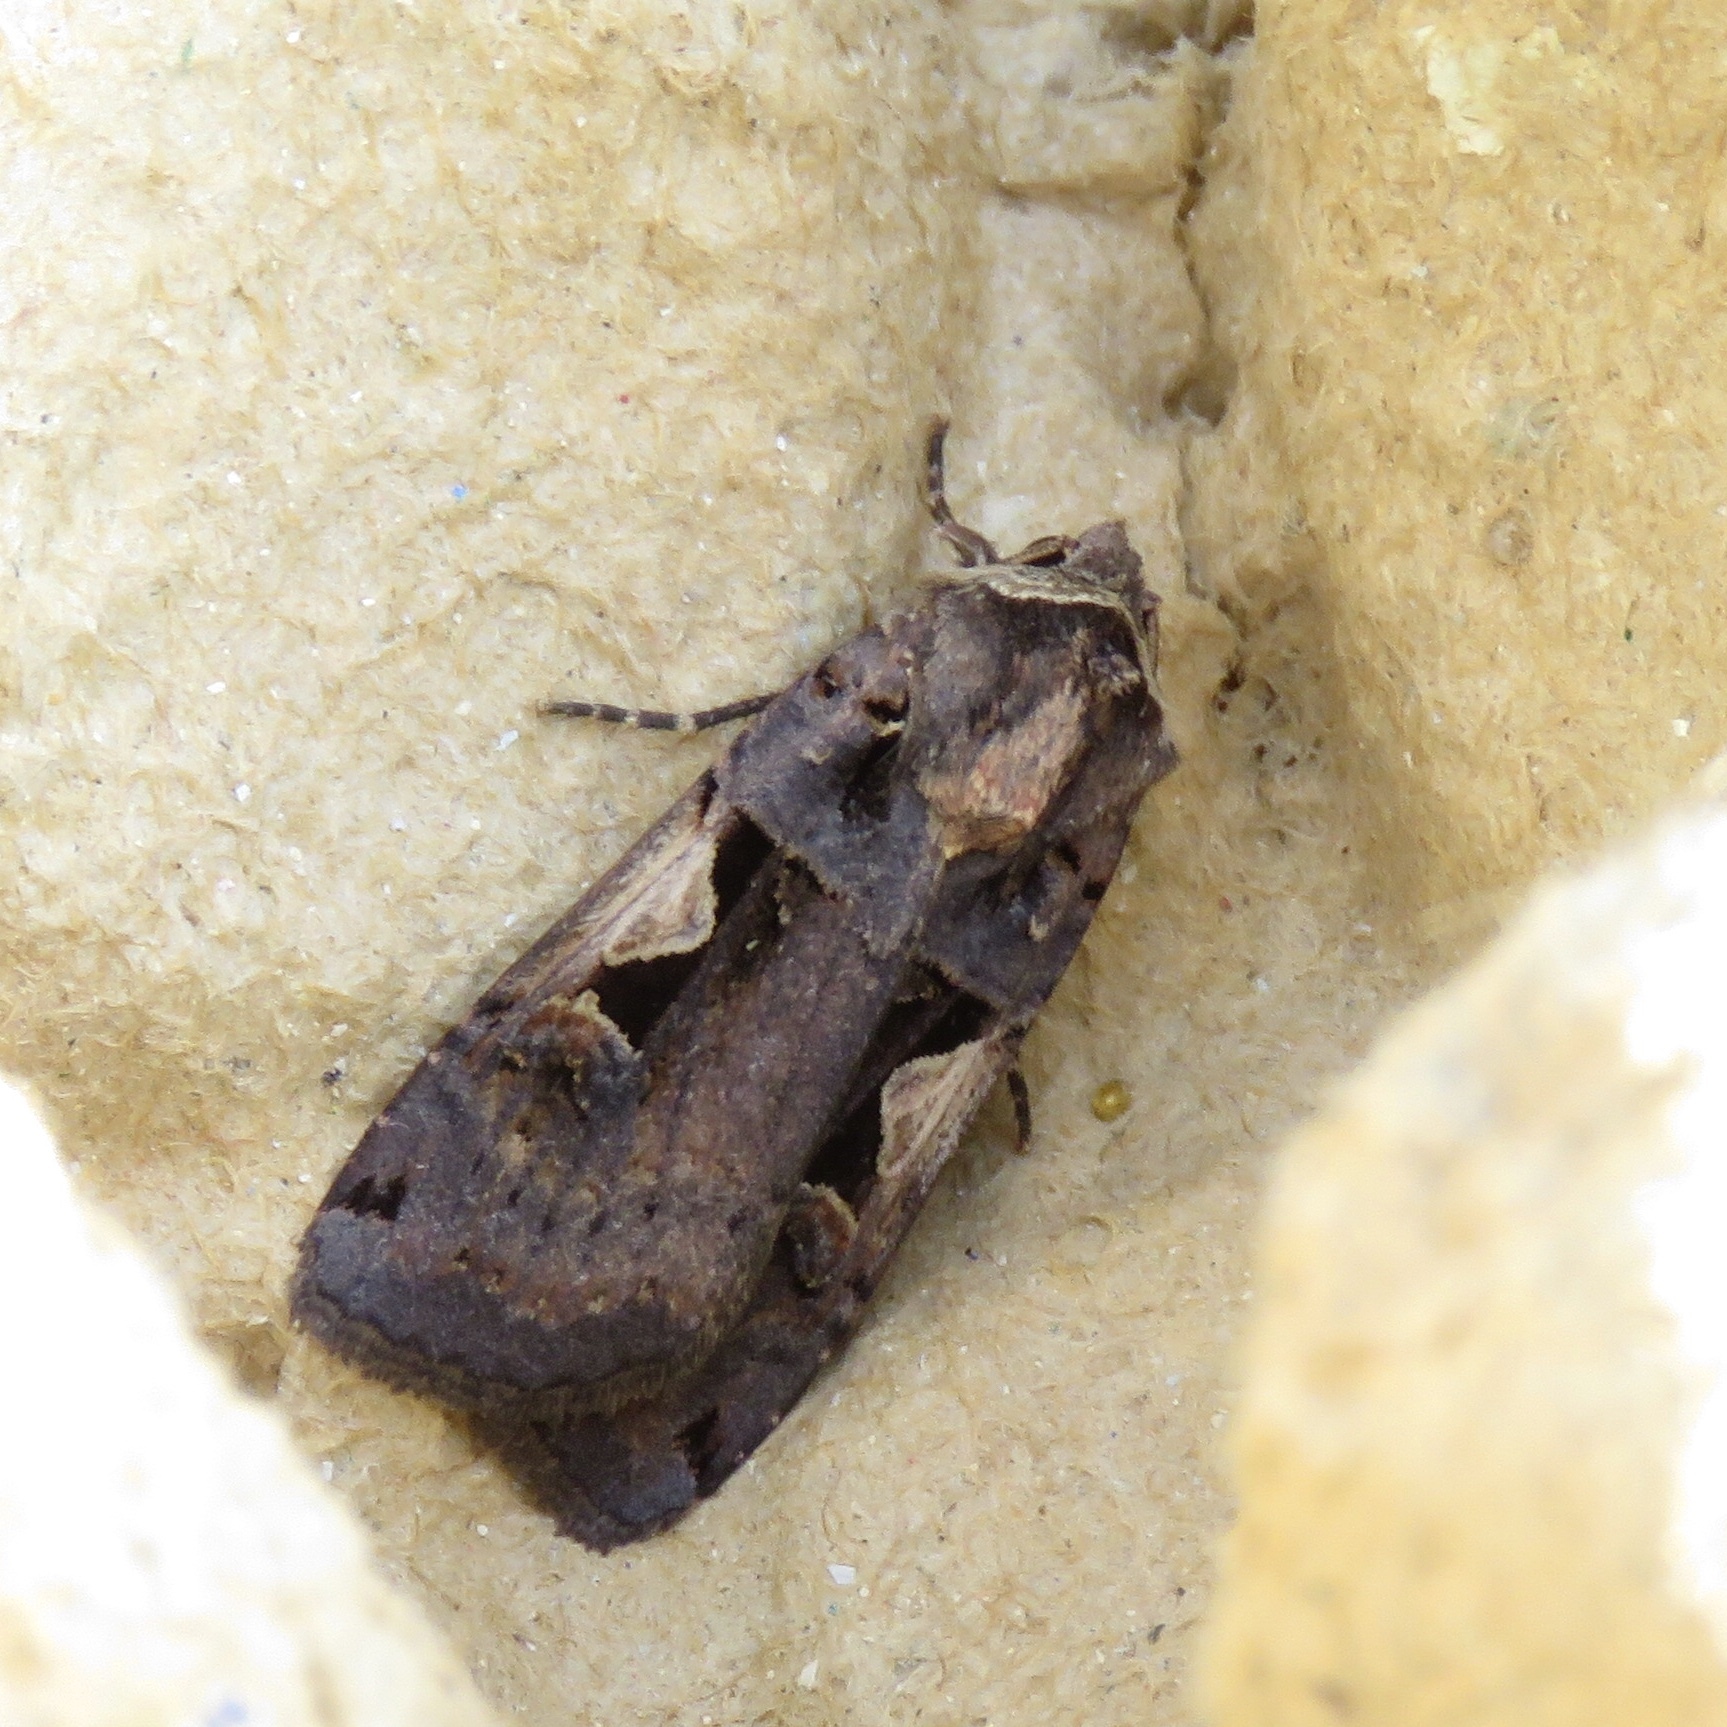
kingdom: Animalia
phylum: Arthropoda
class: Insecta
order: Lepidoptera
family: Noctuidae
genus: Xestia
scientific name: Xestia c-nigrum
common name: Setaceous hebrew character
